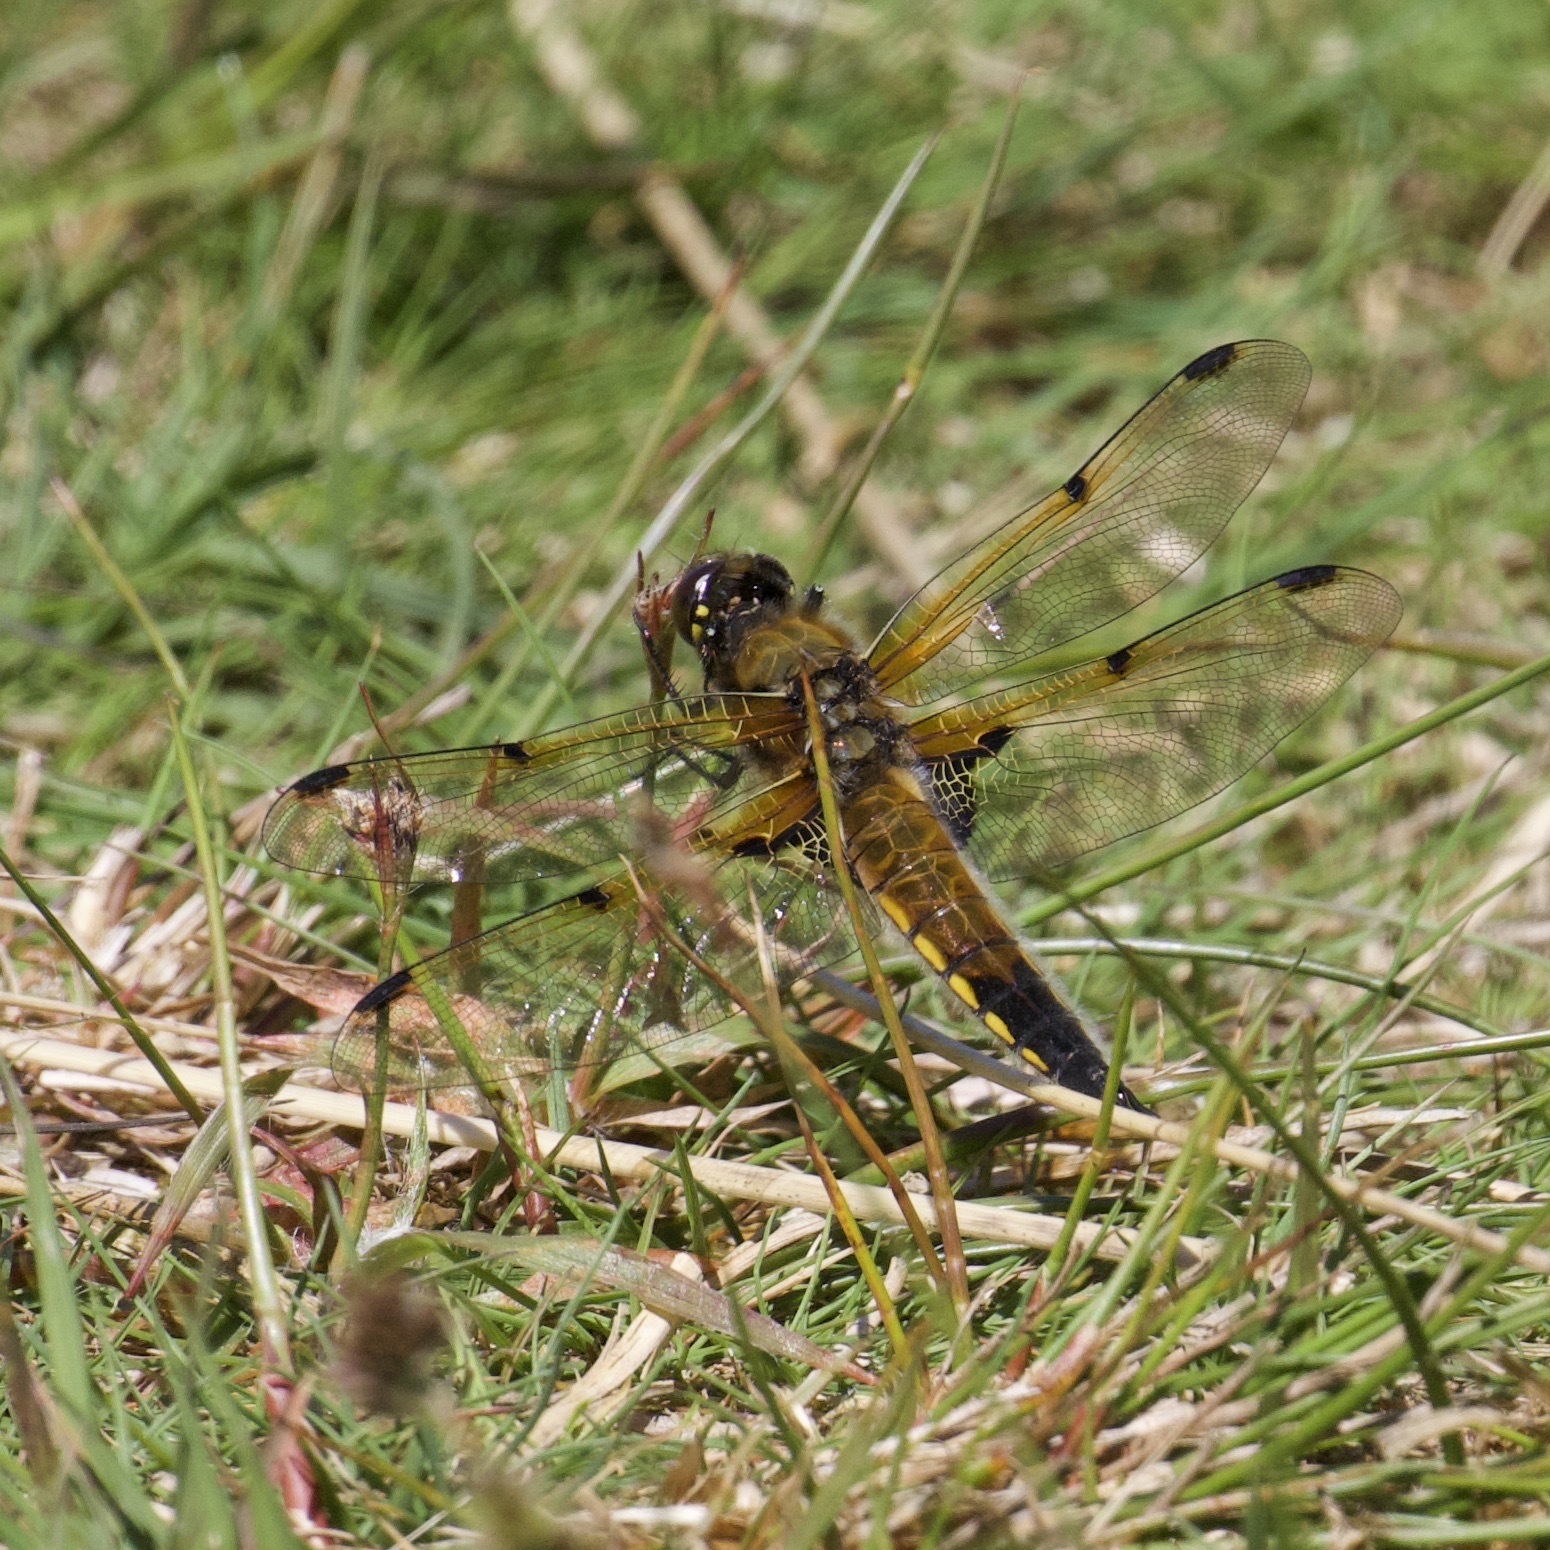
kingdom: Animalia
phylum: Arthropoda
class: Insecta
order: Odonata
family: Libellulidae
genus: Libellula
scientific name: Libellula quadrimaculata
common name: Four-spotted chaser
